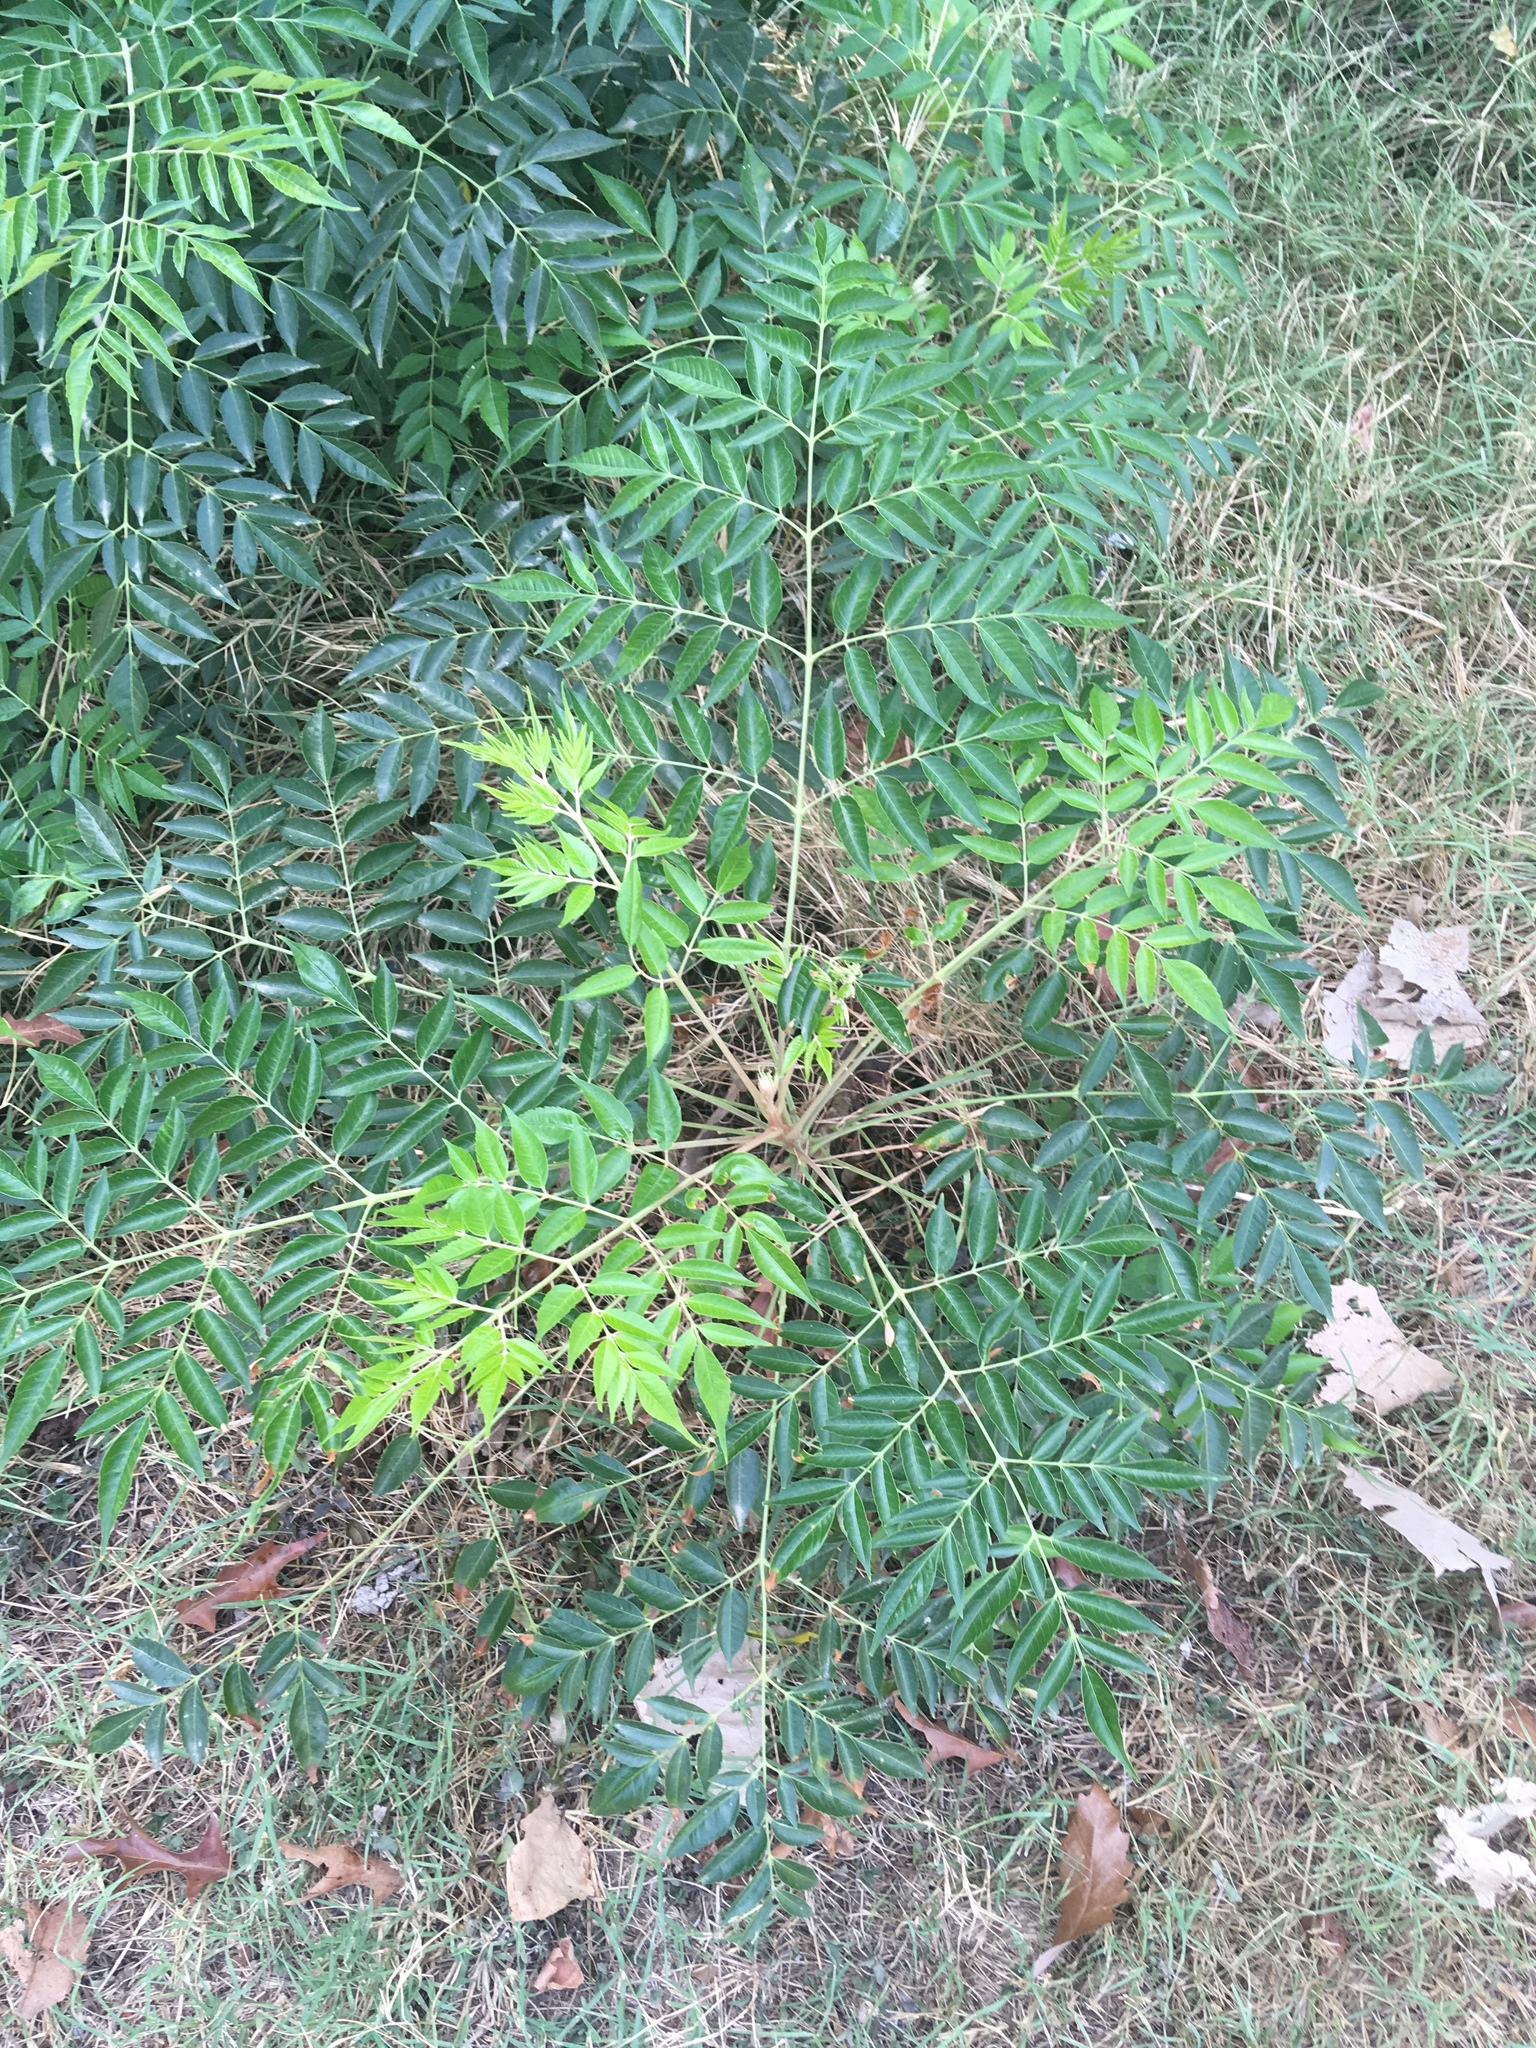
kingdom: Plantae
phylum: Tracheophyta
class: Magnoliopsida
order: Sapindales
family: Meliaceae
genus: Melia
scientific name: Melia azedarach
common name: Chinaberrytree
